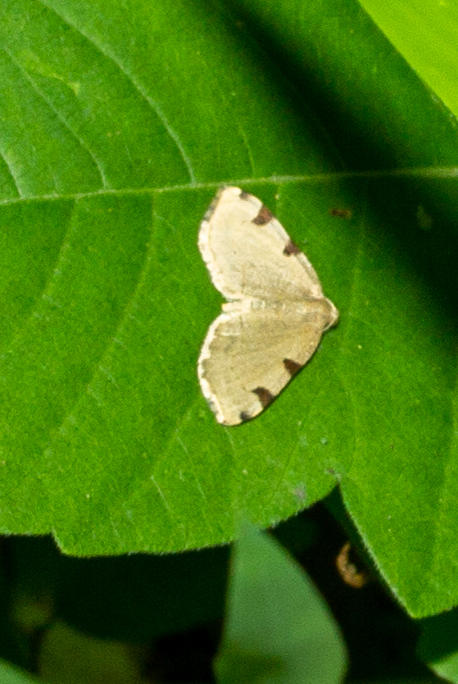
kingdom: Animalia
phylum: Arthropoda
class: Insecta
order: Lepidoptera
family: Geometridae
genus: Heterophleps
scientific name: Heterophleps triguttaria
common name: Three-spotted fillip
